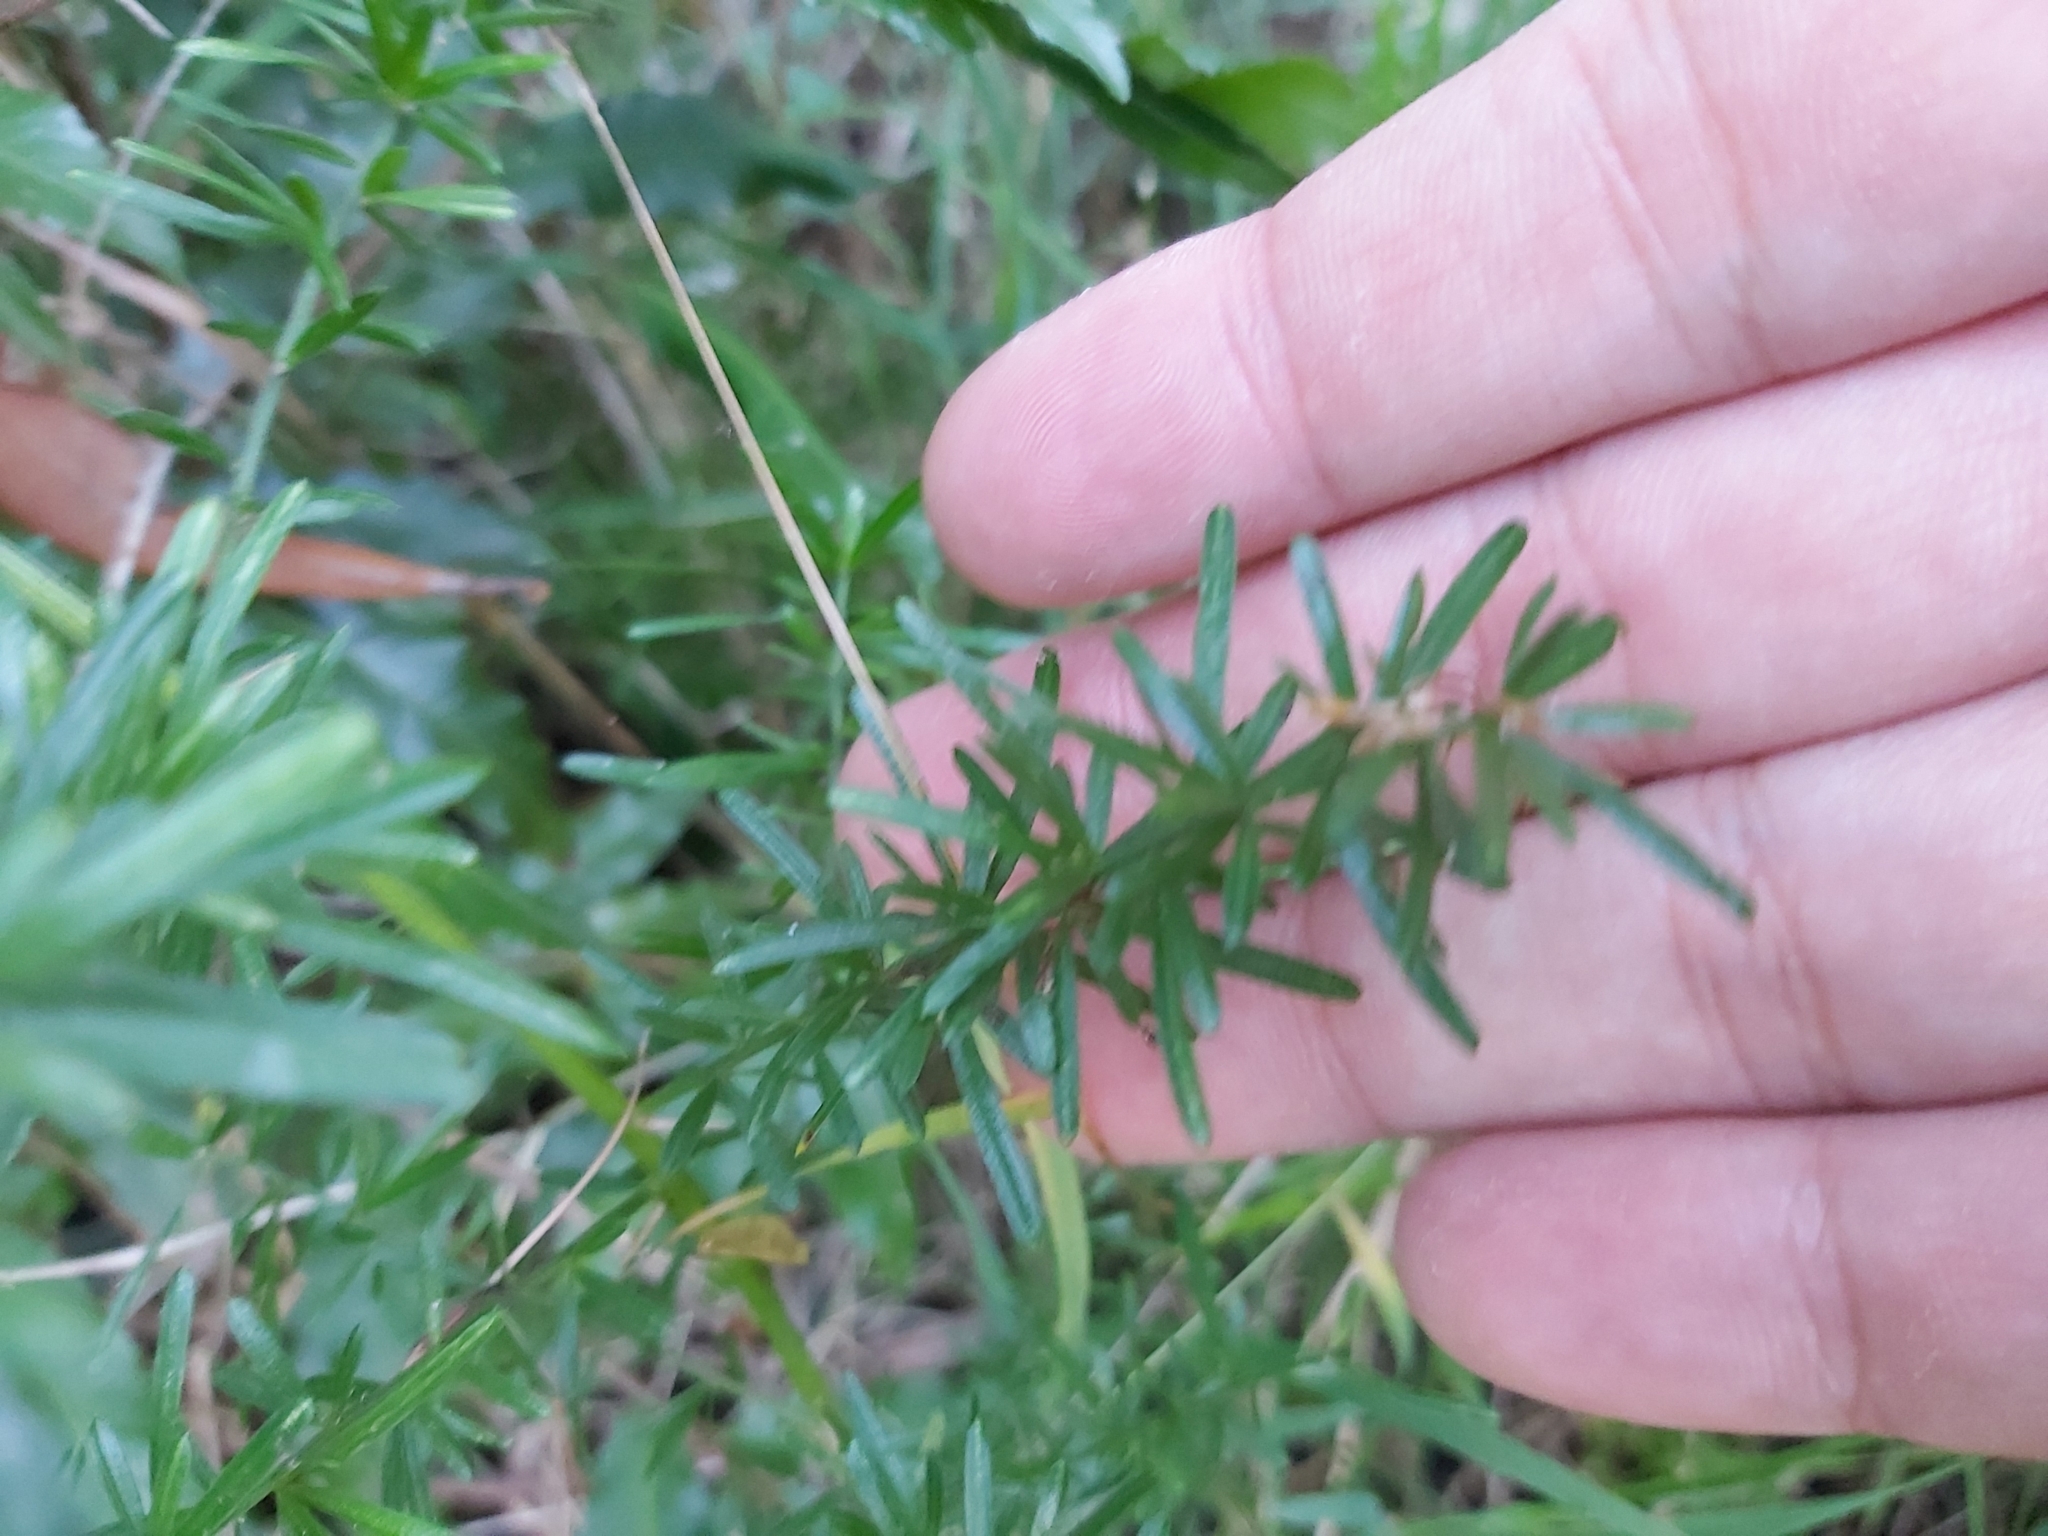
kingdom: Plantae
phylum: Tracheophyta
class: Liliopsida
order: Asparagales
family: Asparagaceae
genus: Asparagus
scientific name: Asparagus aethiopicus
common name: Sprenger's asparagus fern
